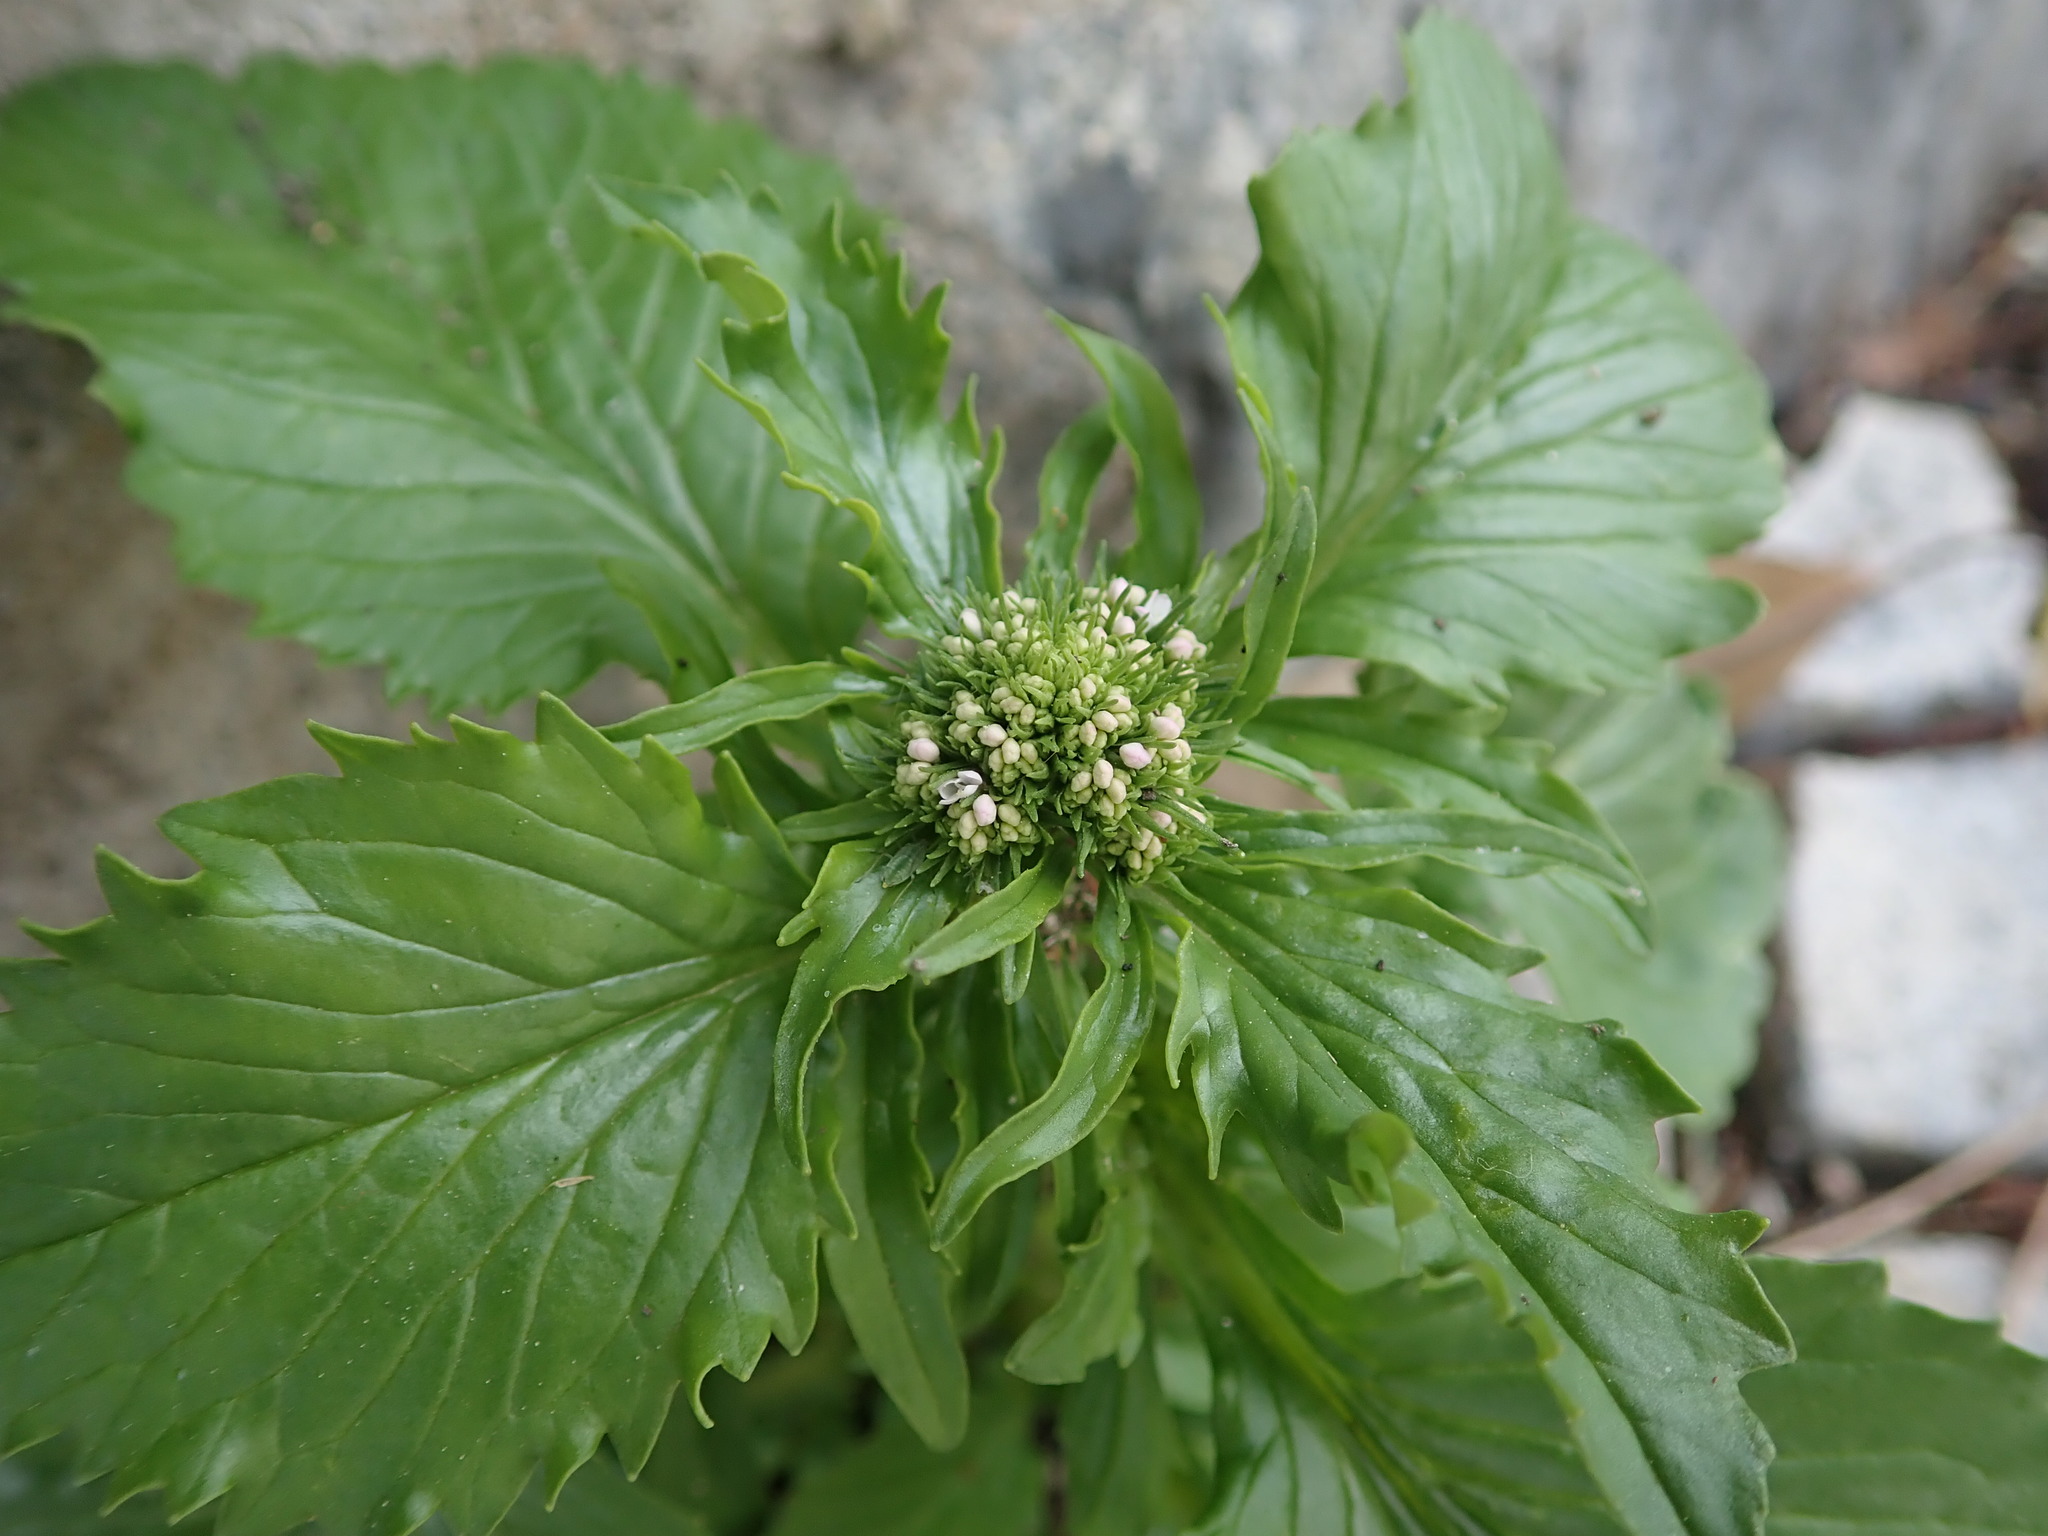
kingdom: Plantae
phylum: Tracheophyta
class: Magnoliopsida
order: Dipsacales
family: Caprifoliaceae
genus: Centranthus
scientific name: Centranthus calcitrapae
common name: Annual valerian
